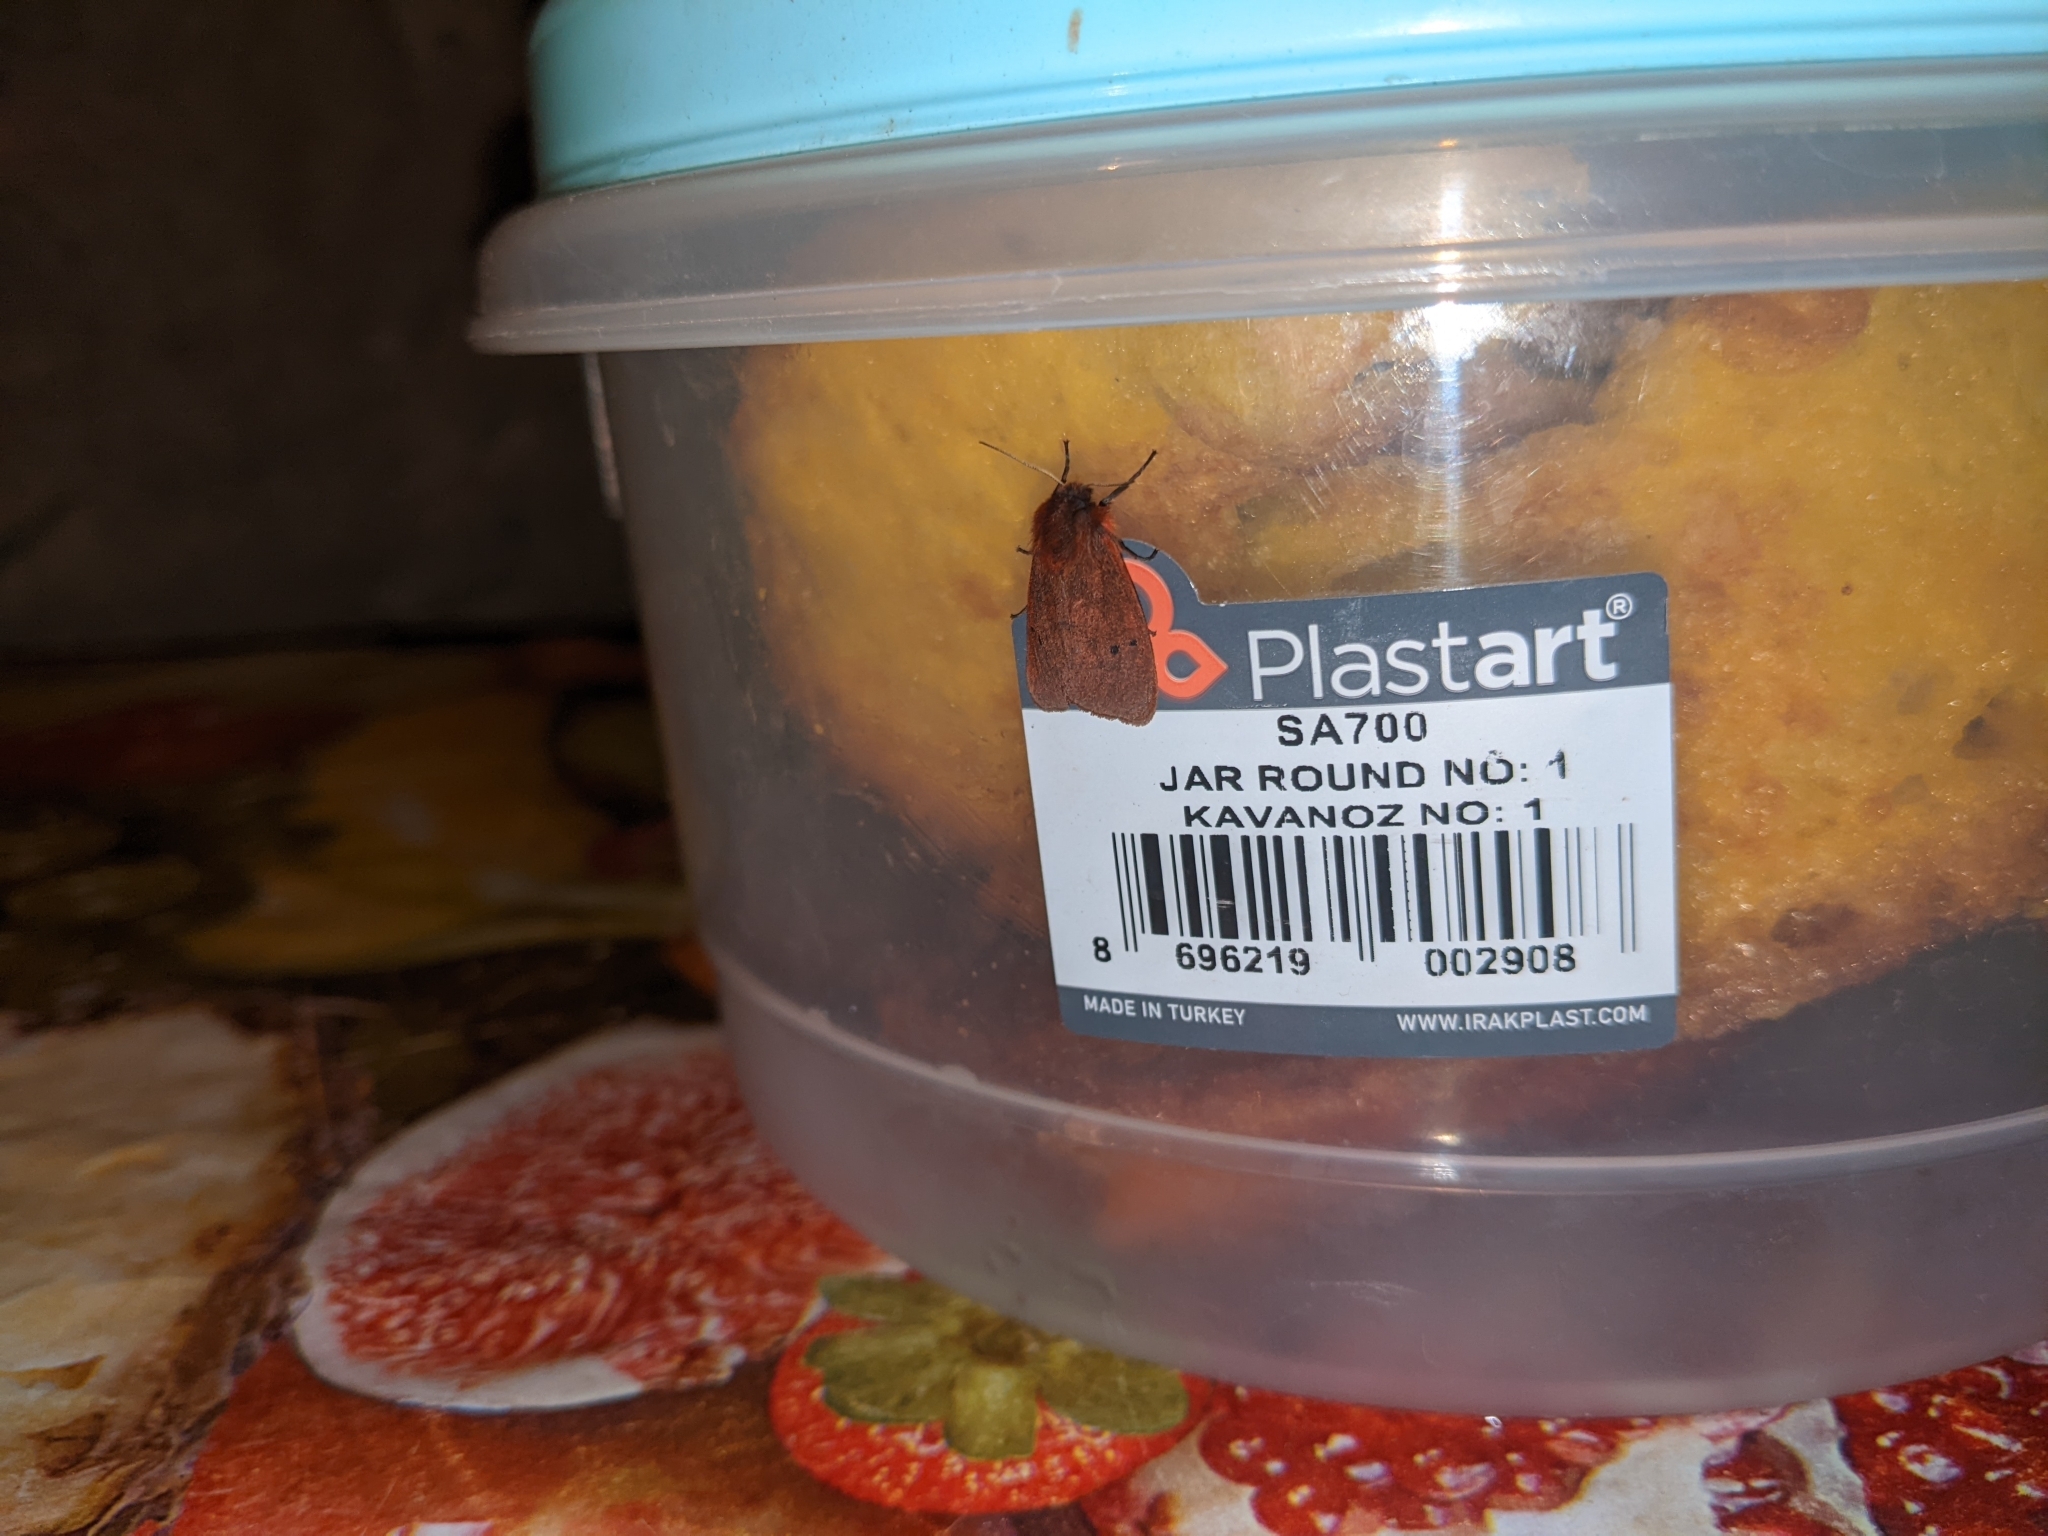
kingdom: Animalia
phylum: Arthropoda
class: Insecta
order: Lepidoptera
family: Erebidae
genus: Phragmatobia
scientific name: Phragmatobia fuliginosa
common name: Ruby tiger
